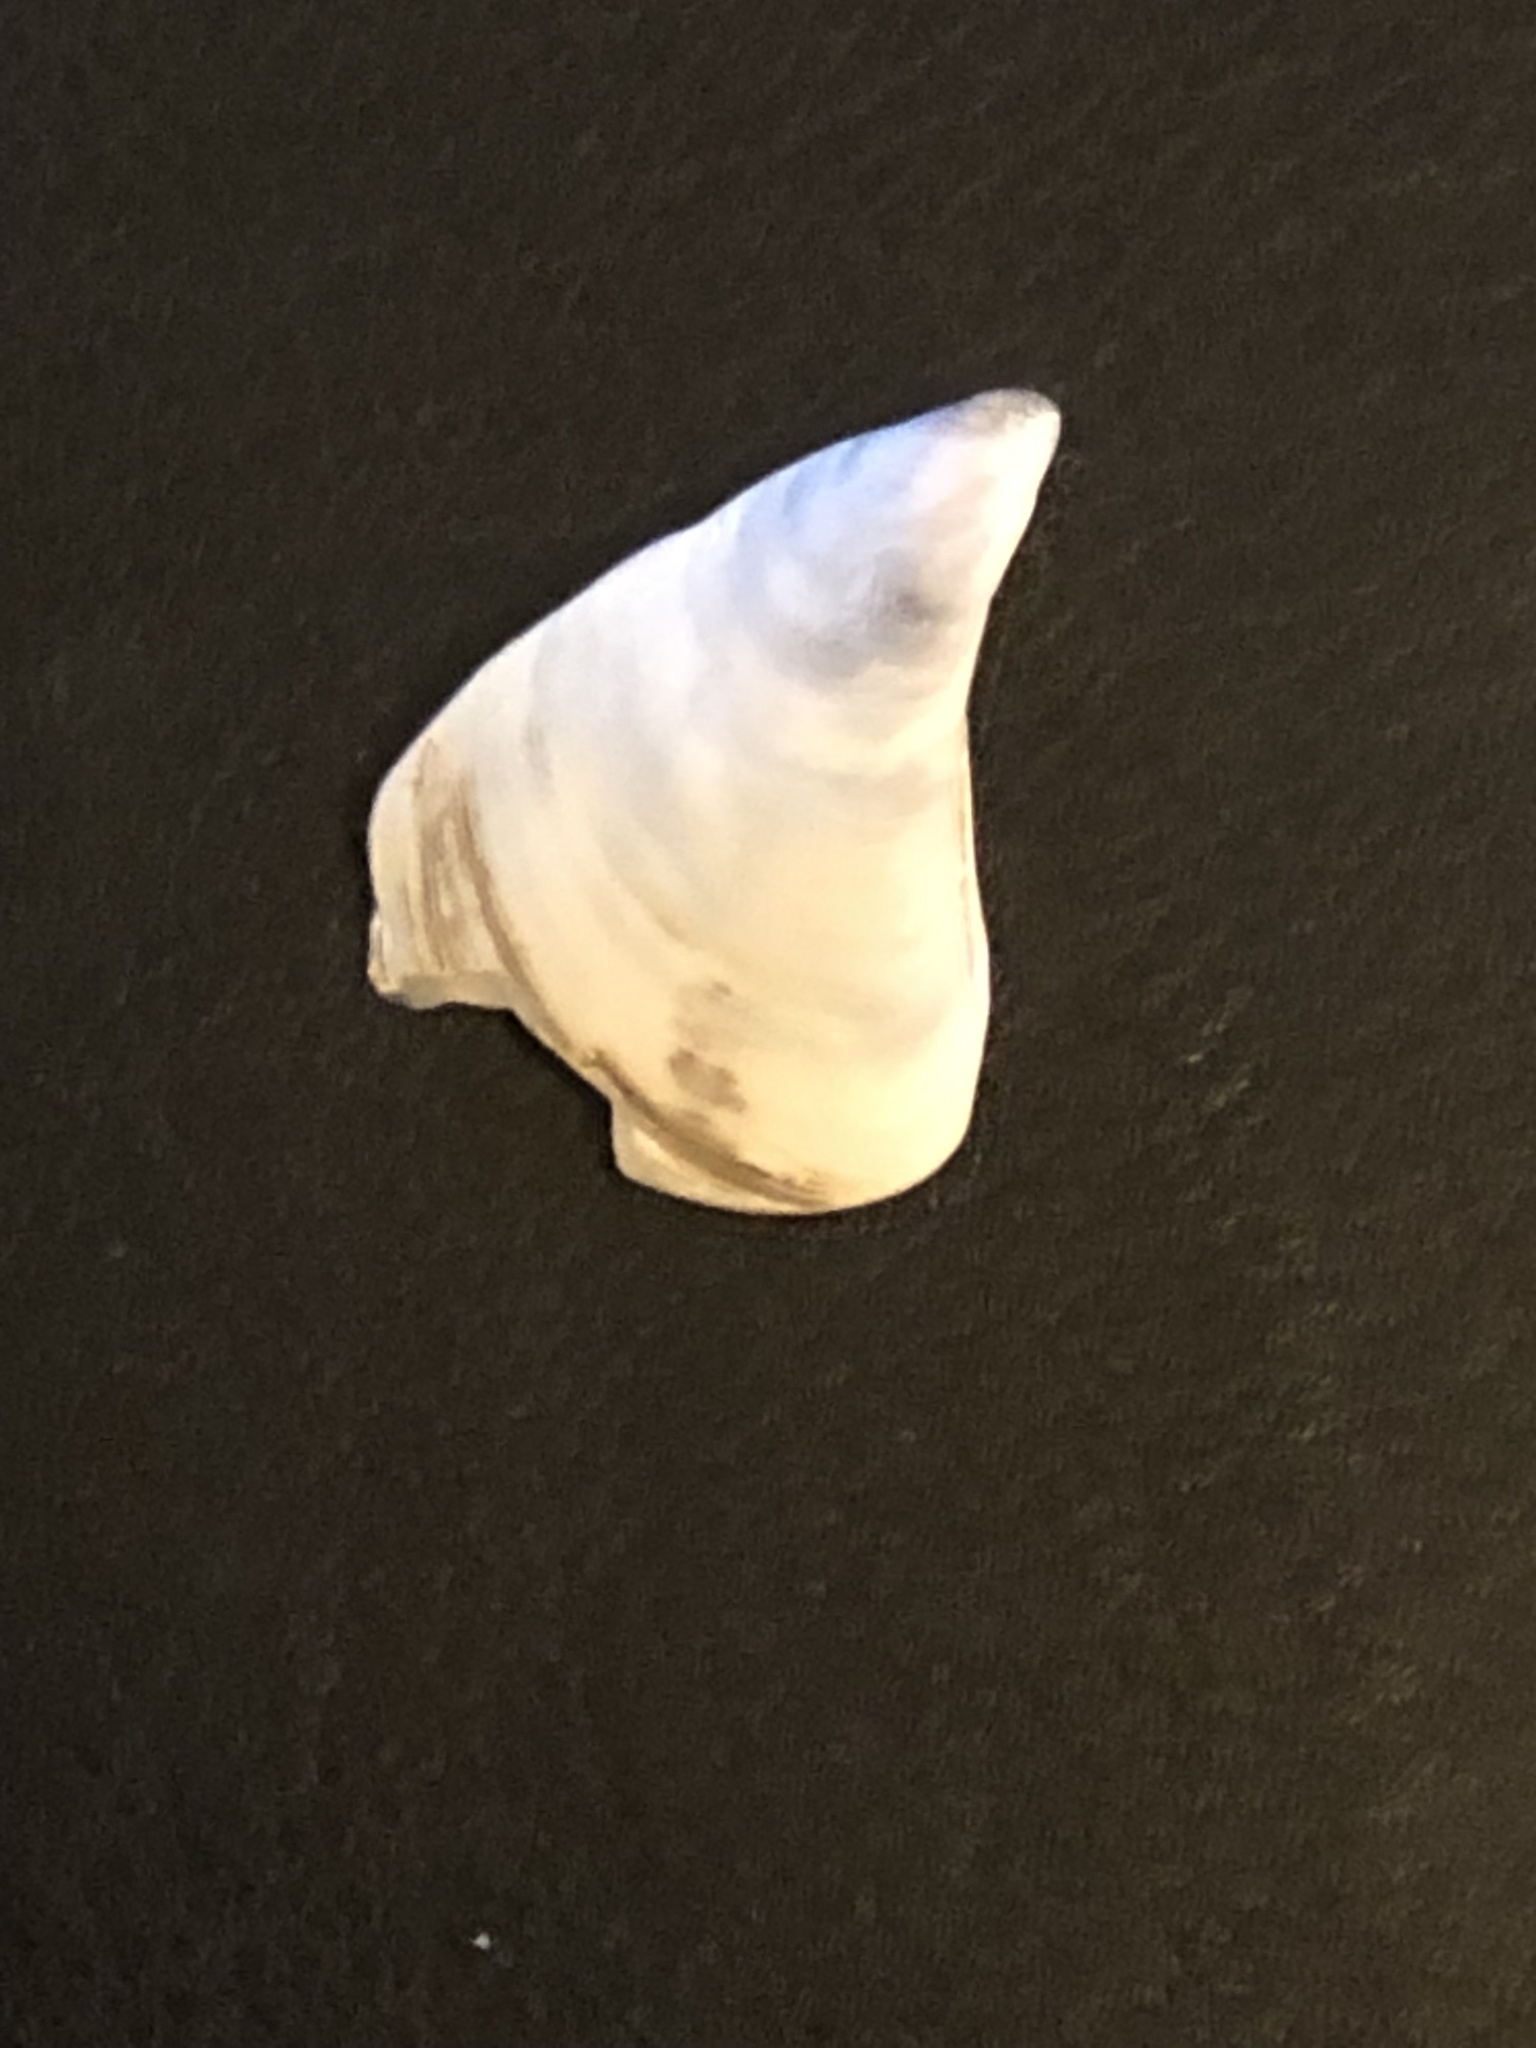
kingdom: Animalia
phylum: Mollusca
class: Bivalvia
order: Myida
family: Dreissenidae
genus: Dreissena
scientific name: Dreissena bugensis
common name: Quagga mussel
